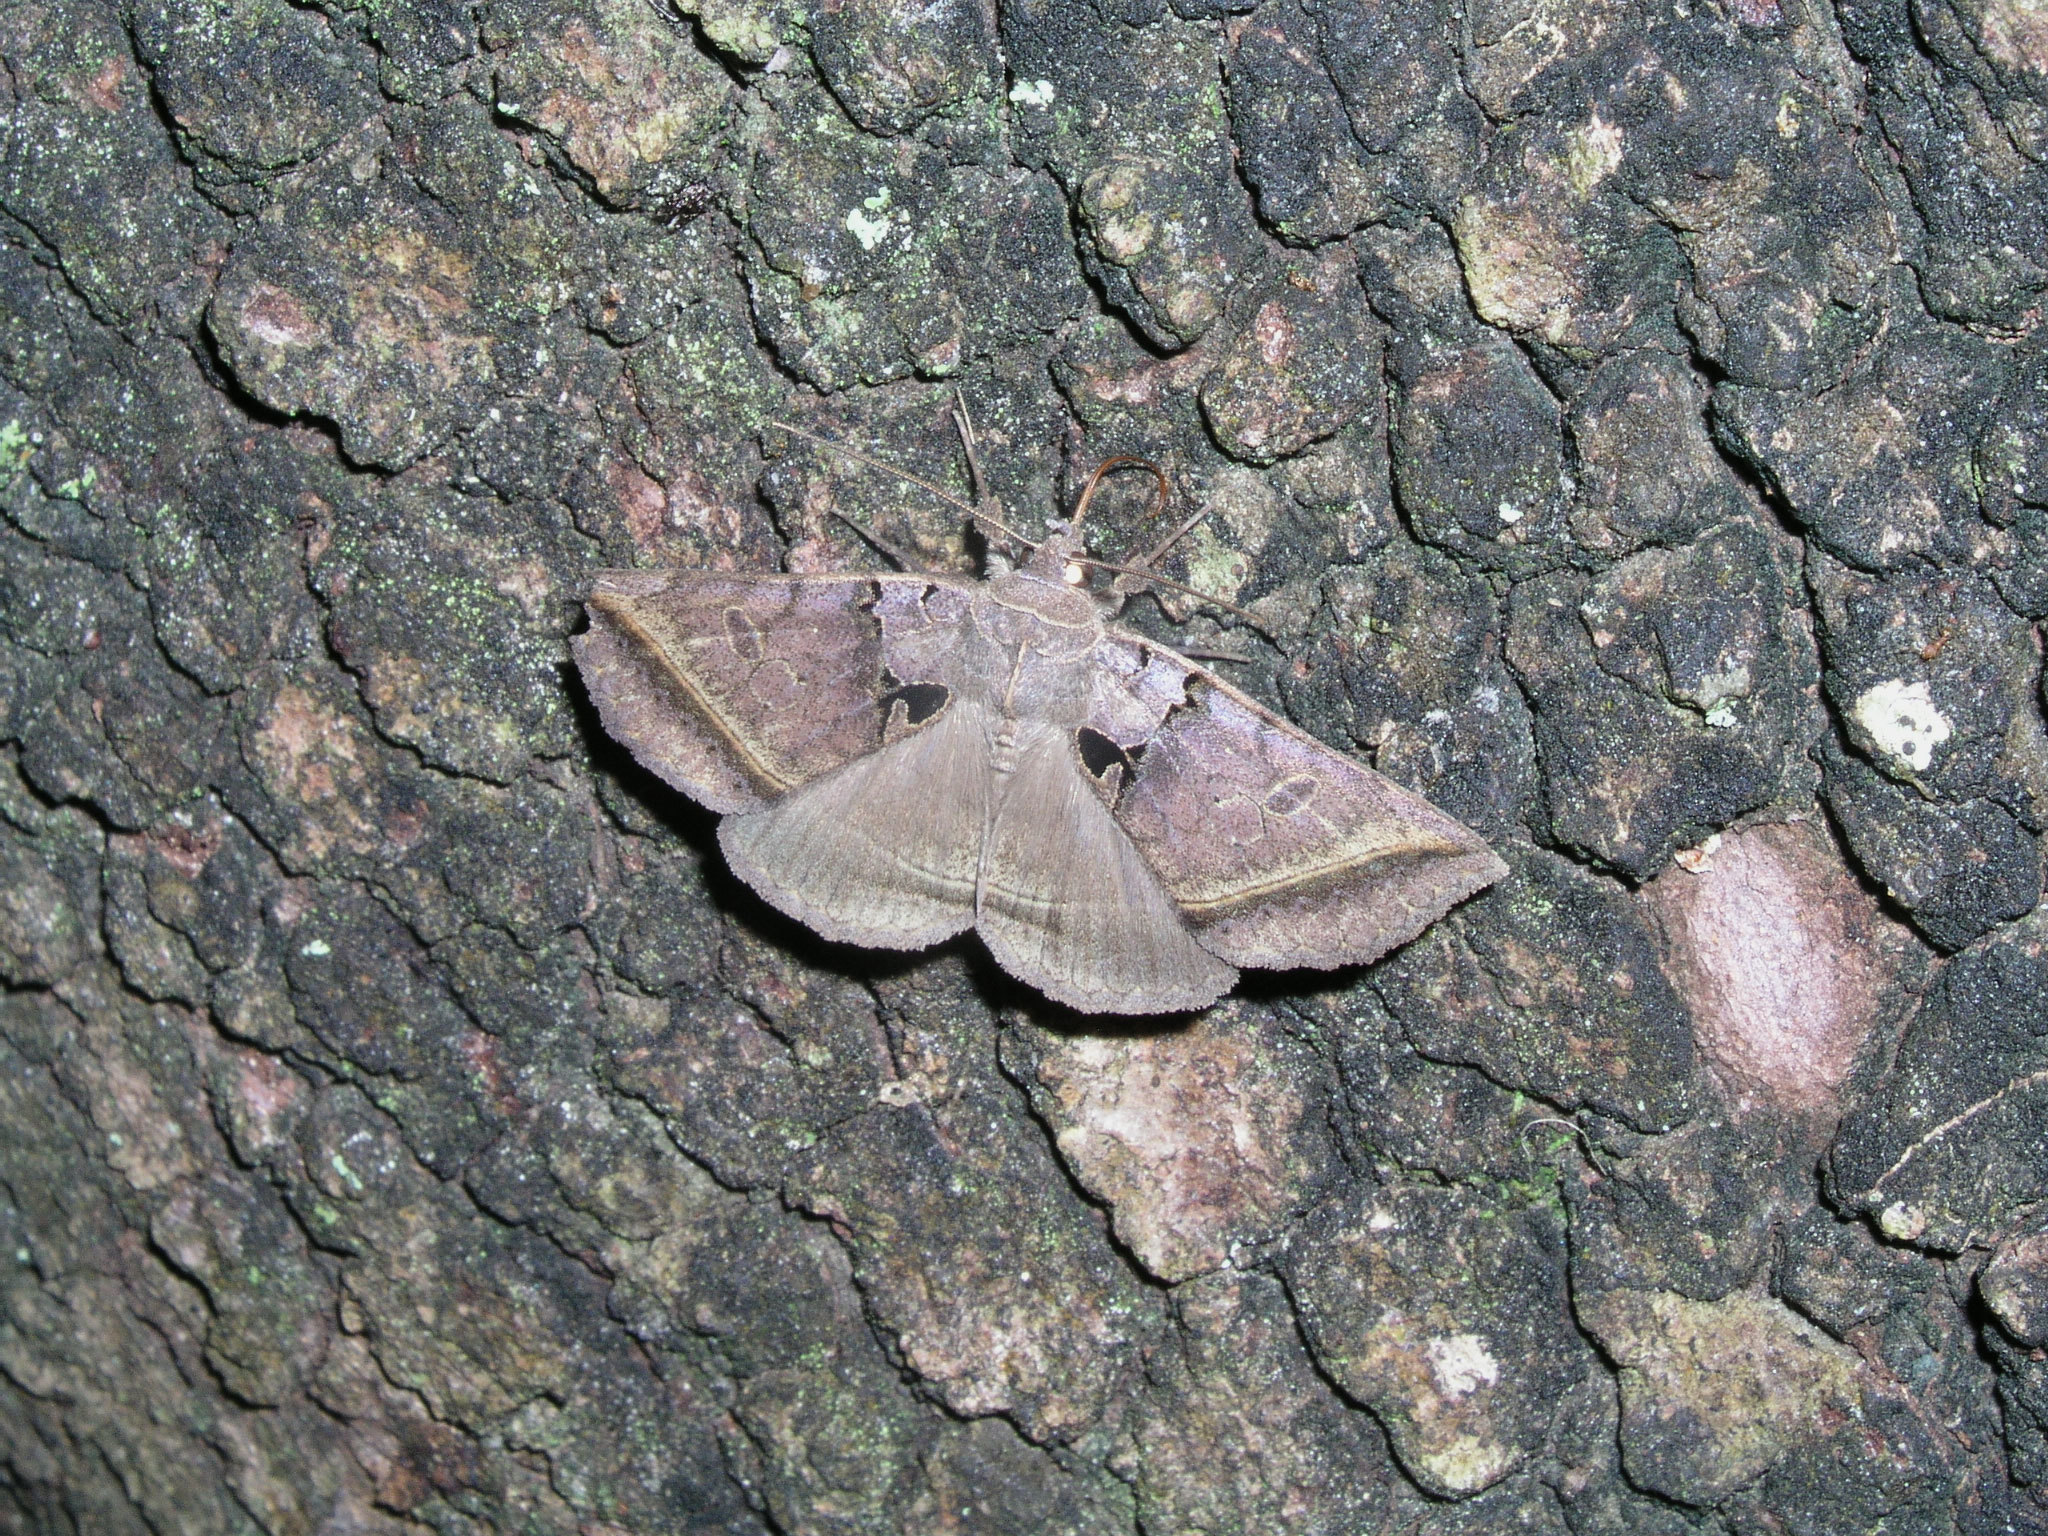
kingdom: Animalia
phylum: Arthropoda
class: Insecta
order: Lepidoptera
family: Erebidae
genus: Celiptera
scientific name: Celiptera frustulum
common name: Black bit moth
